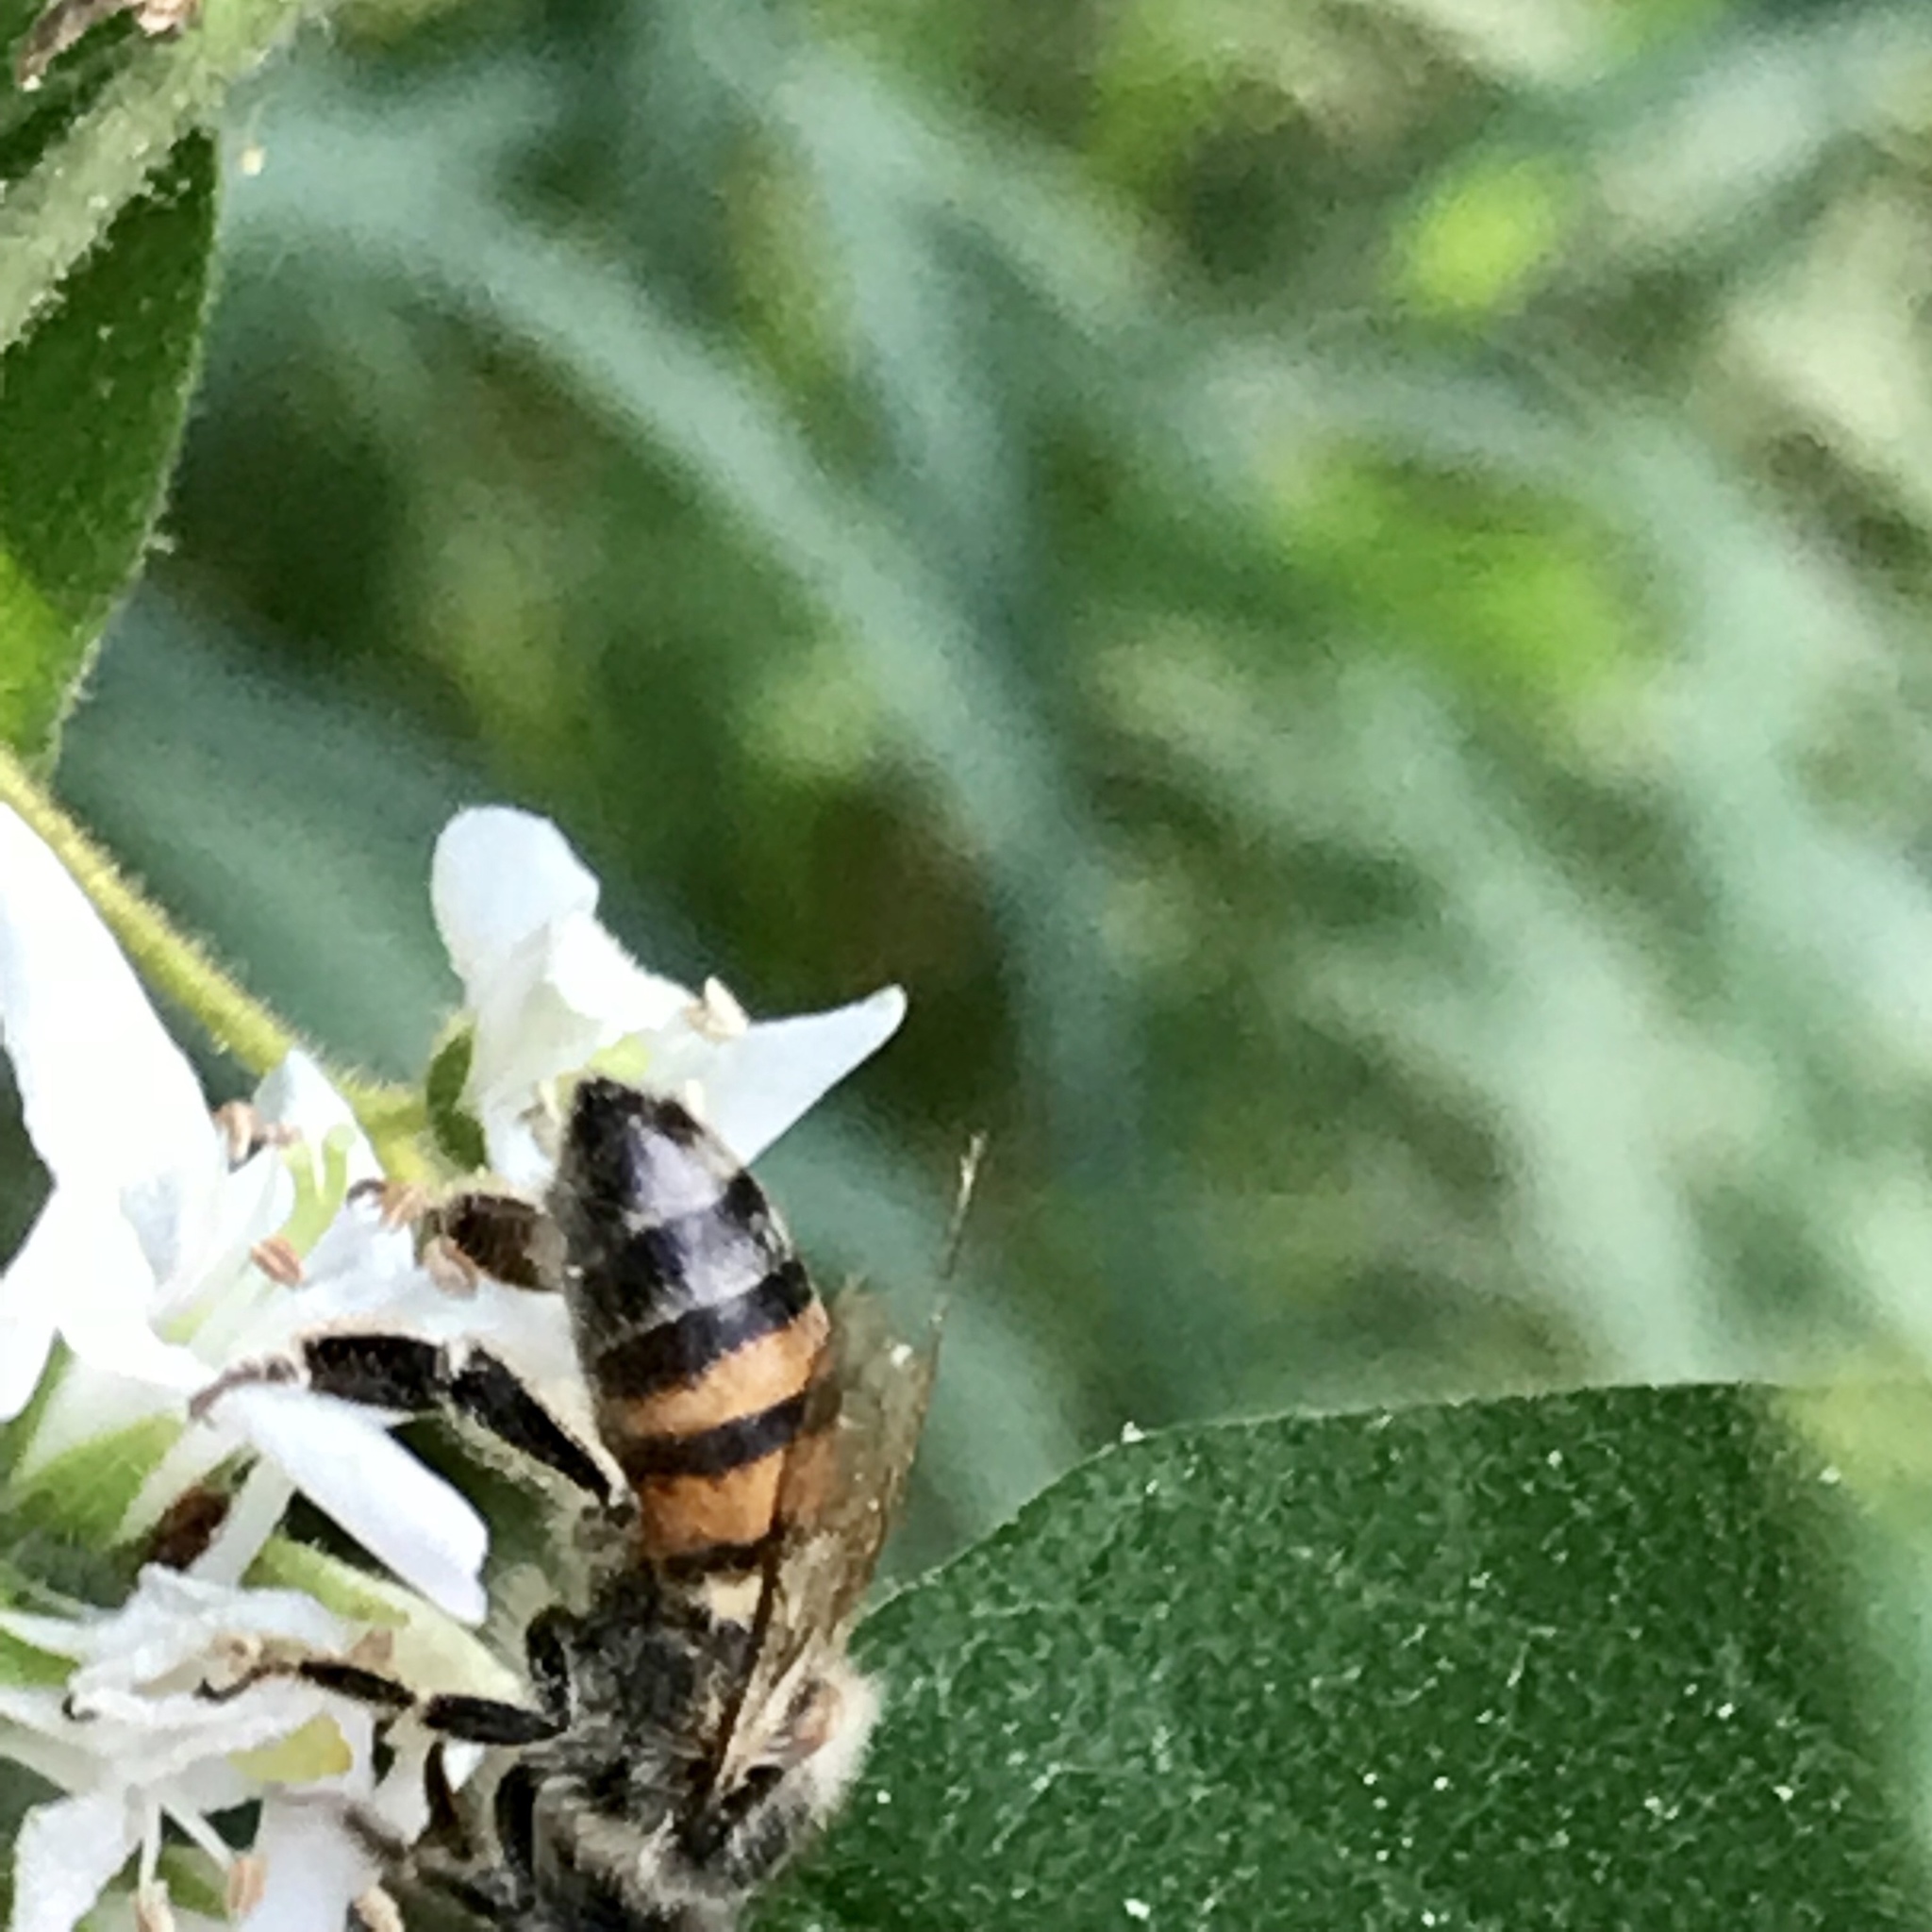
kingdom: Animalia
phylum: Arthropoda
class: Insecta
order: Hymenoptera
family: Apidae
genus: Apis
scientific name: Apis mellifera
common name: Honey bee
